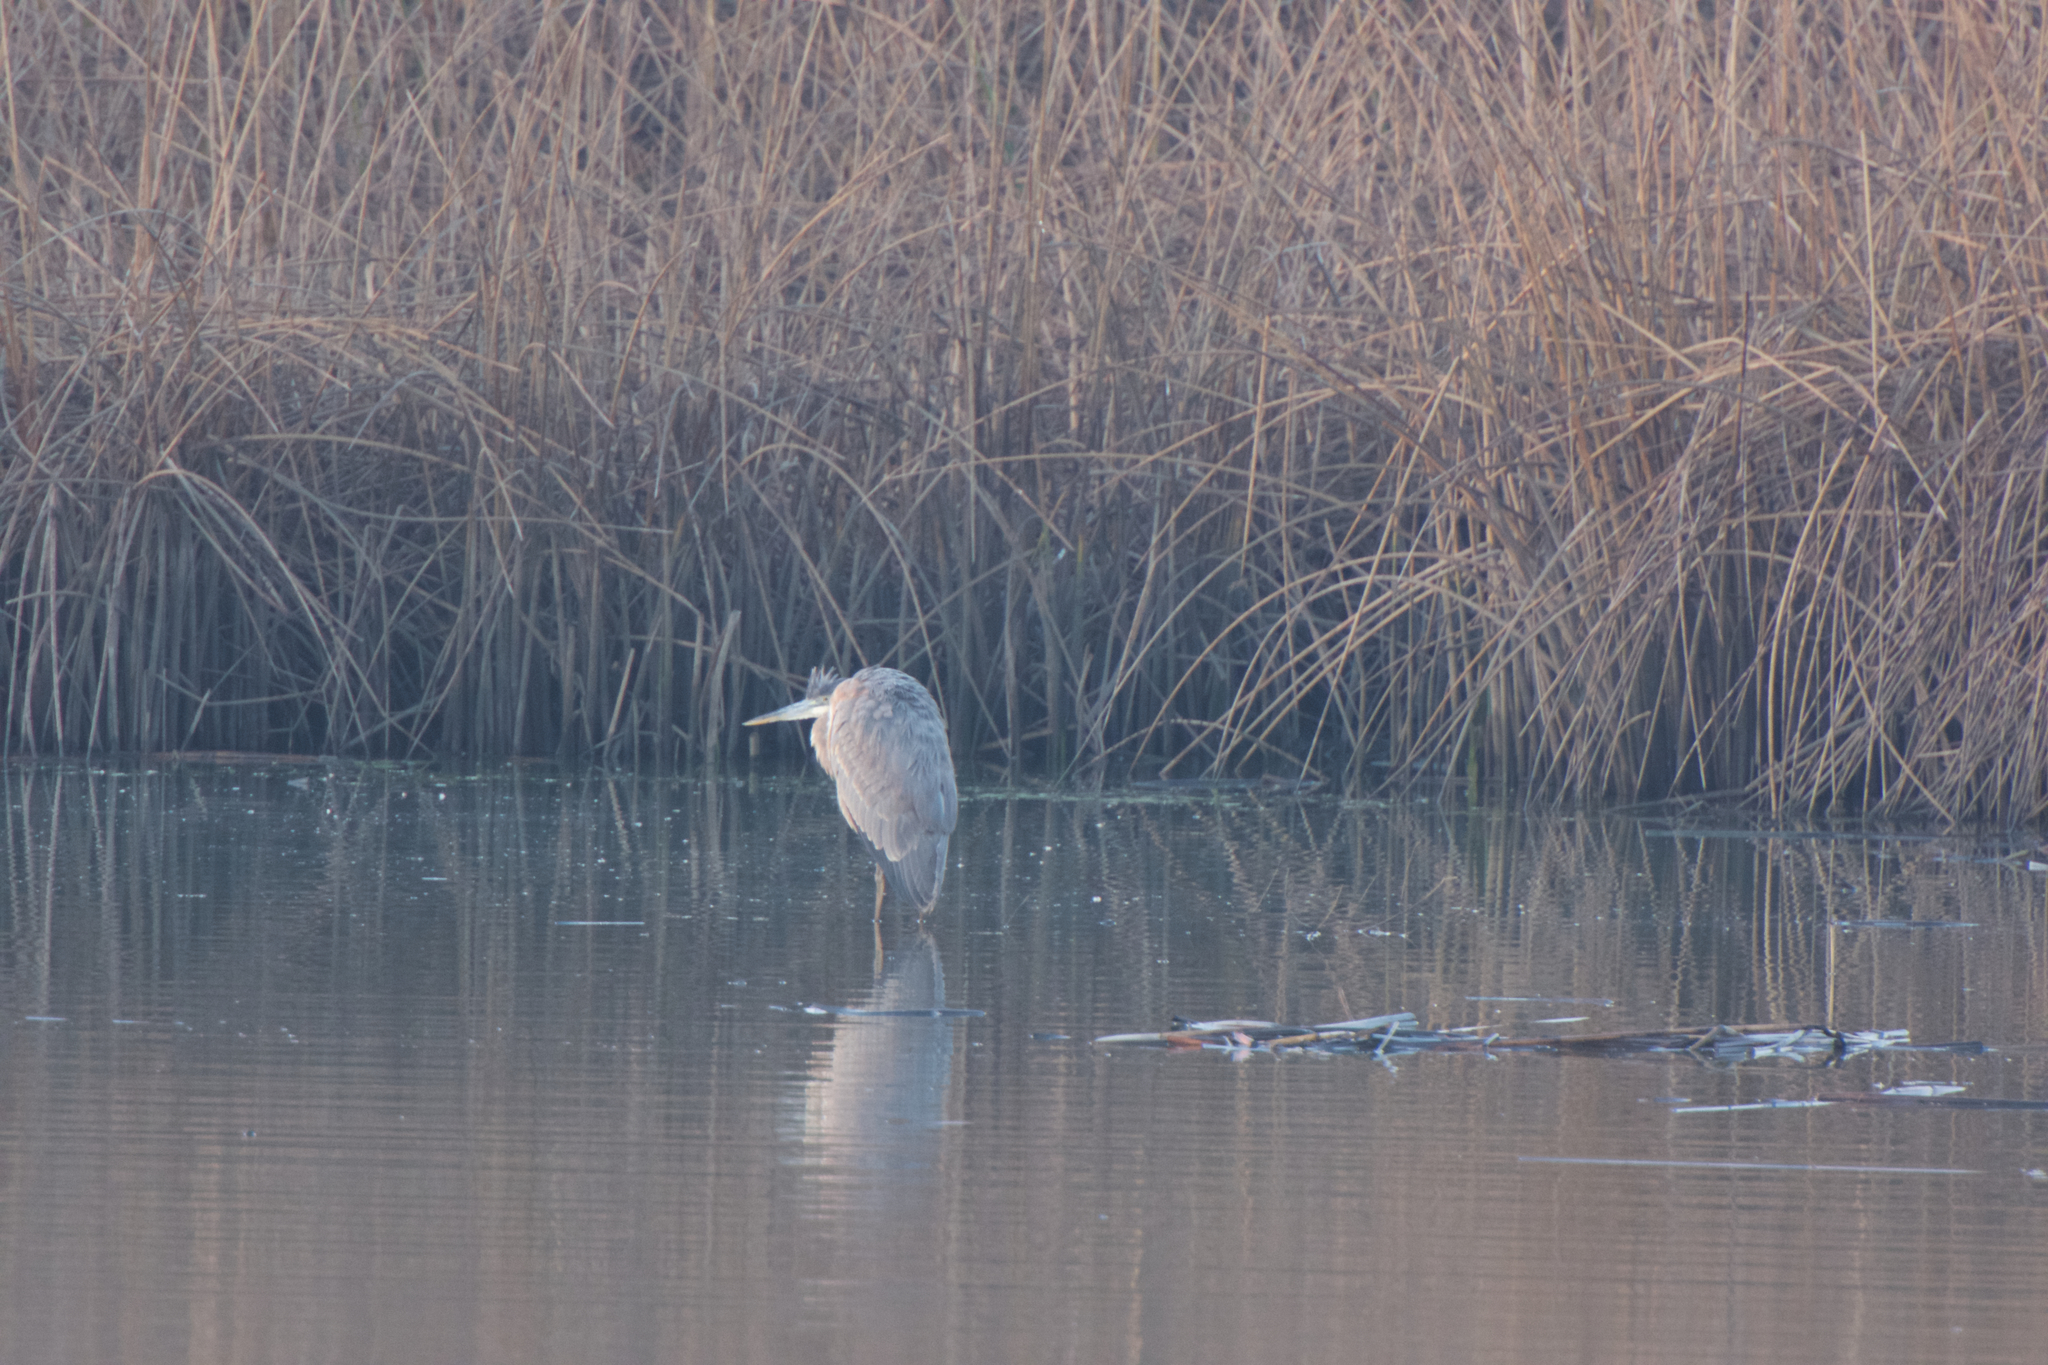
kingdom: Animalia
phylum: Chordata
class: Aves
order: Pelecaniformes
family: Ardeidae
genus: Ardea
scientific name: Ardea herodias
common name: Great blue heron
